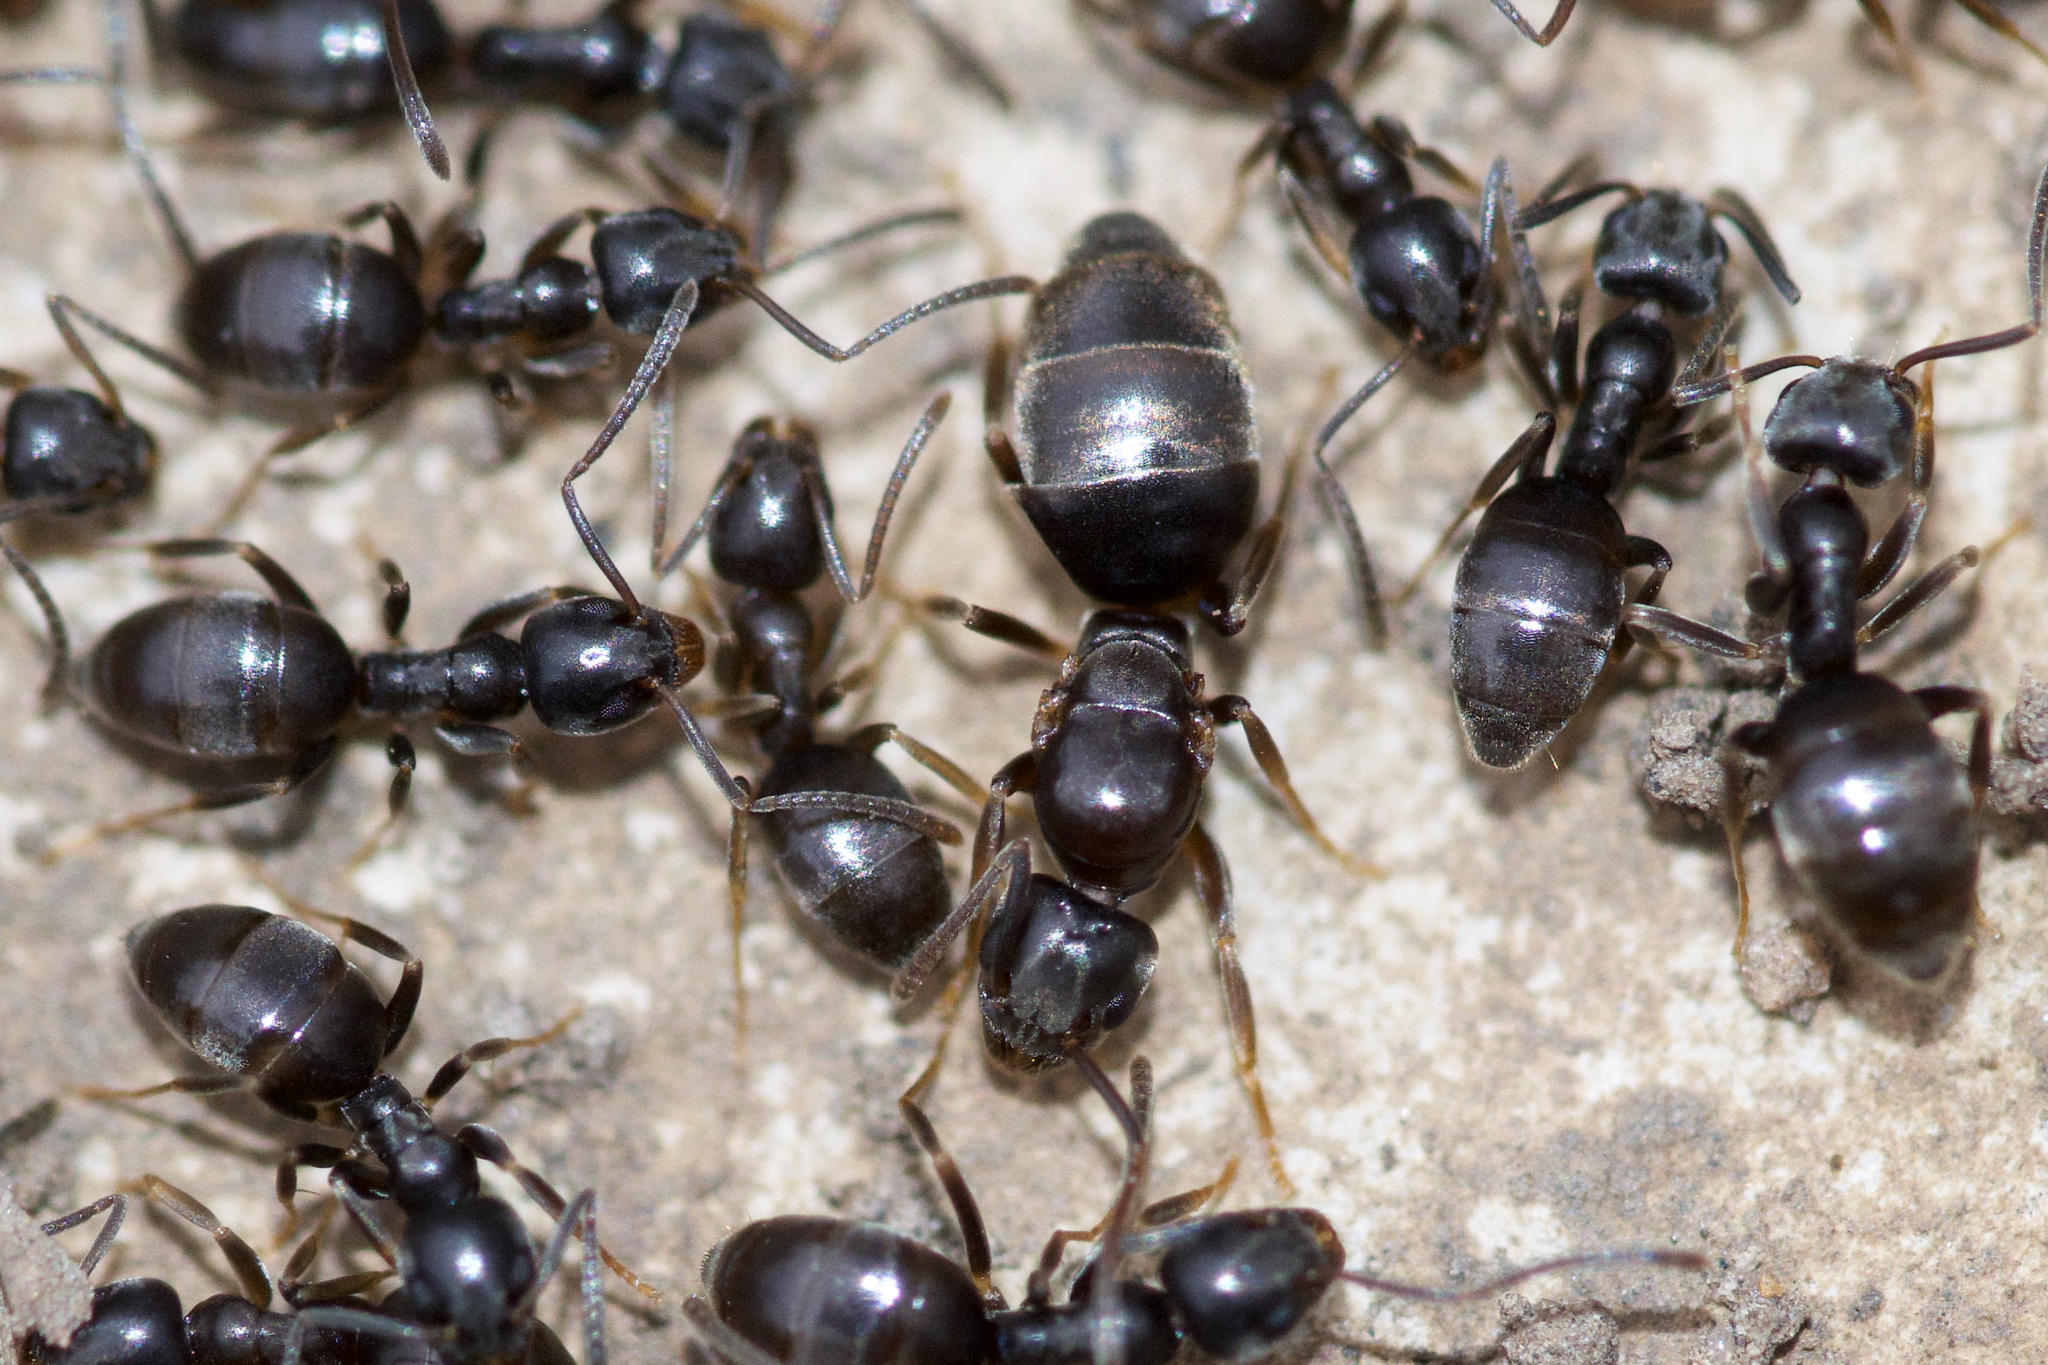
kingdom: Animalia
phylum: Arthropoda
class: Insecta
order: Hymenoptera
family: Formicidae
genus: Tapinoma
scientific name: Tapinoma sessile
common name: Odorous house ant
